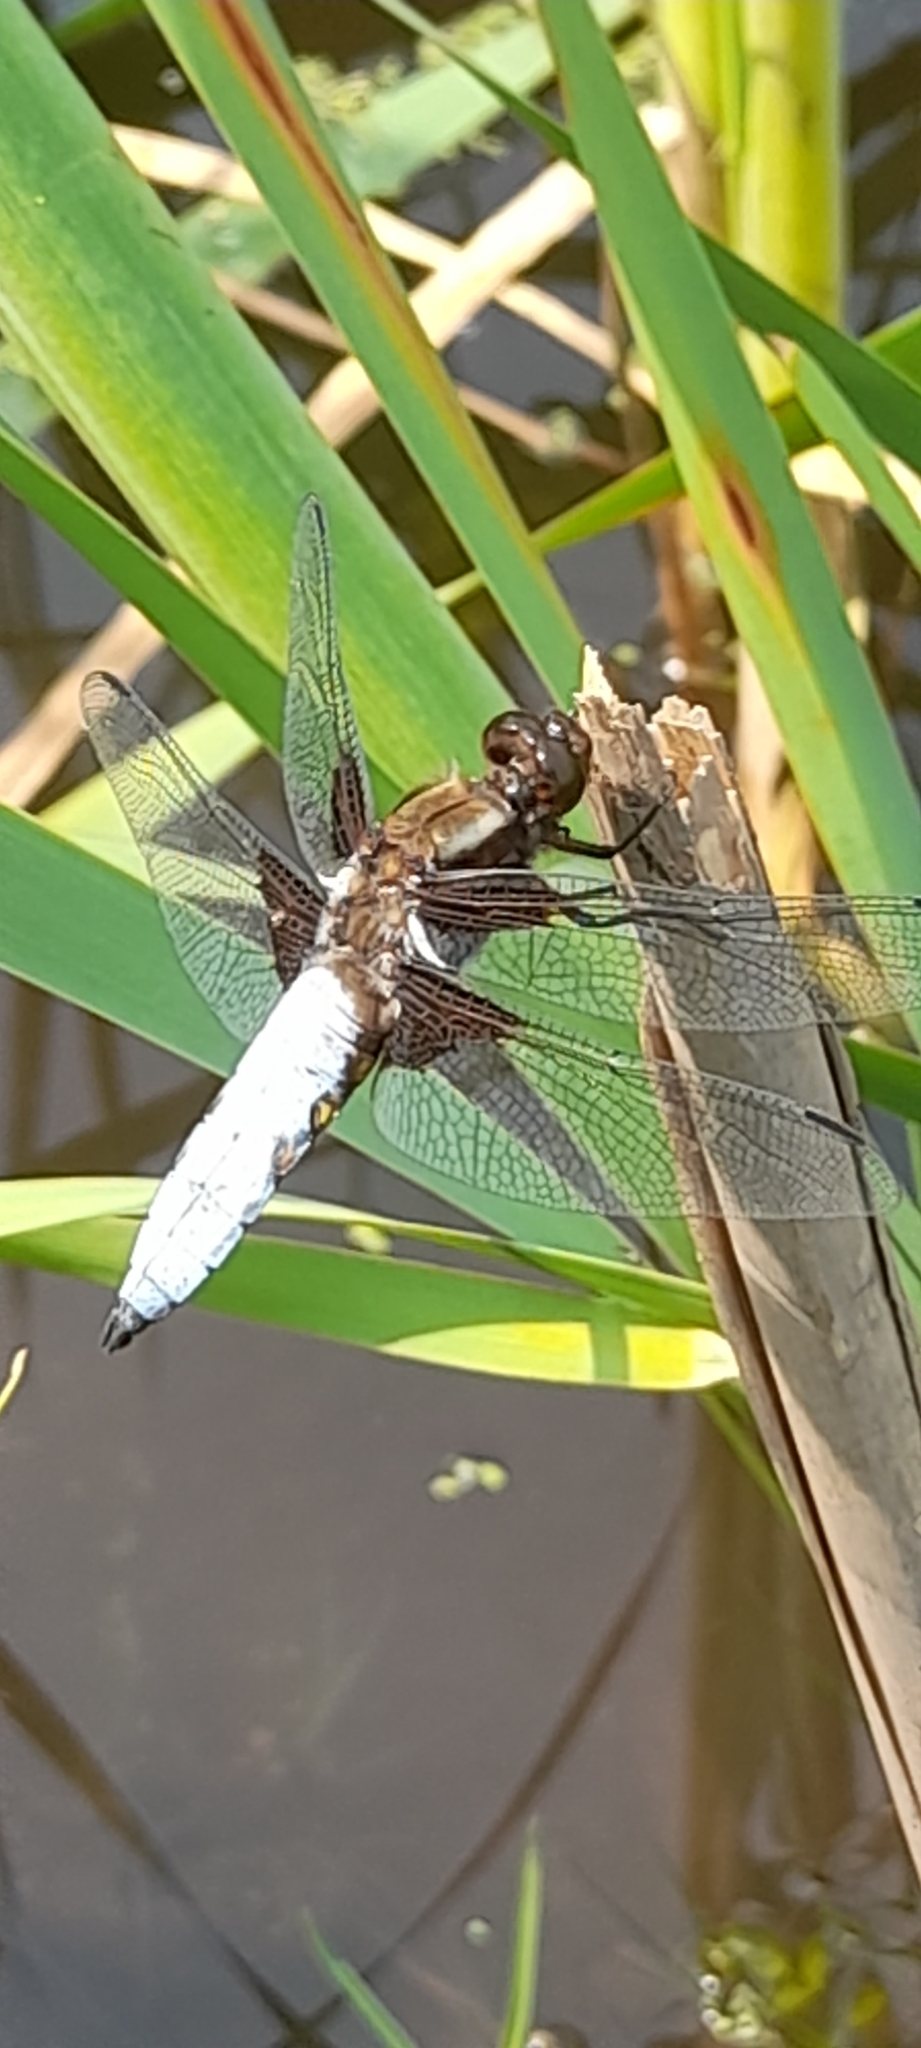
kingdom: Animalia
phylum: Arthropoda
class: Insecta
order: Odonata
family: Libellulidae
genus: Libellula
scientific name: Libellula depressa
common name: Broad-bodied chaser
